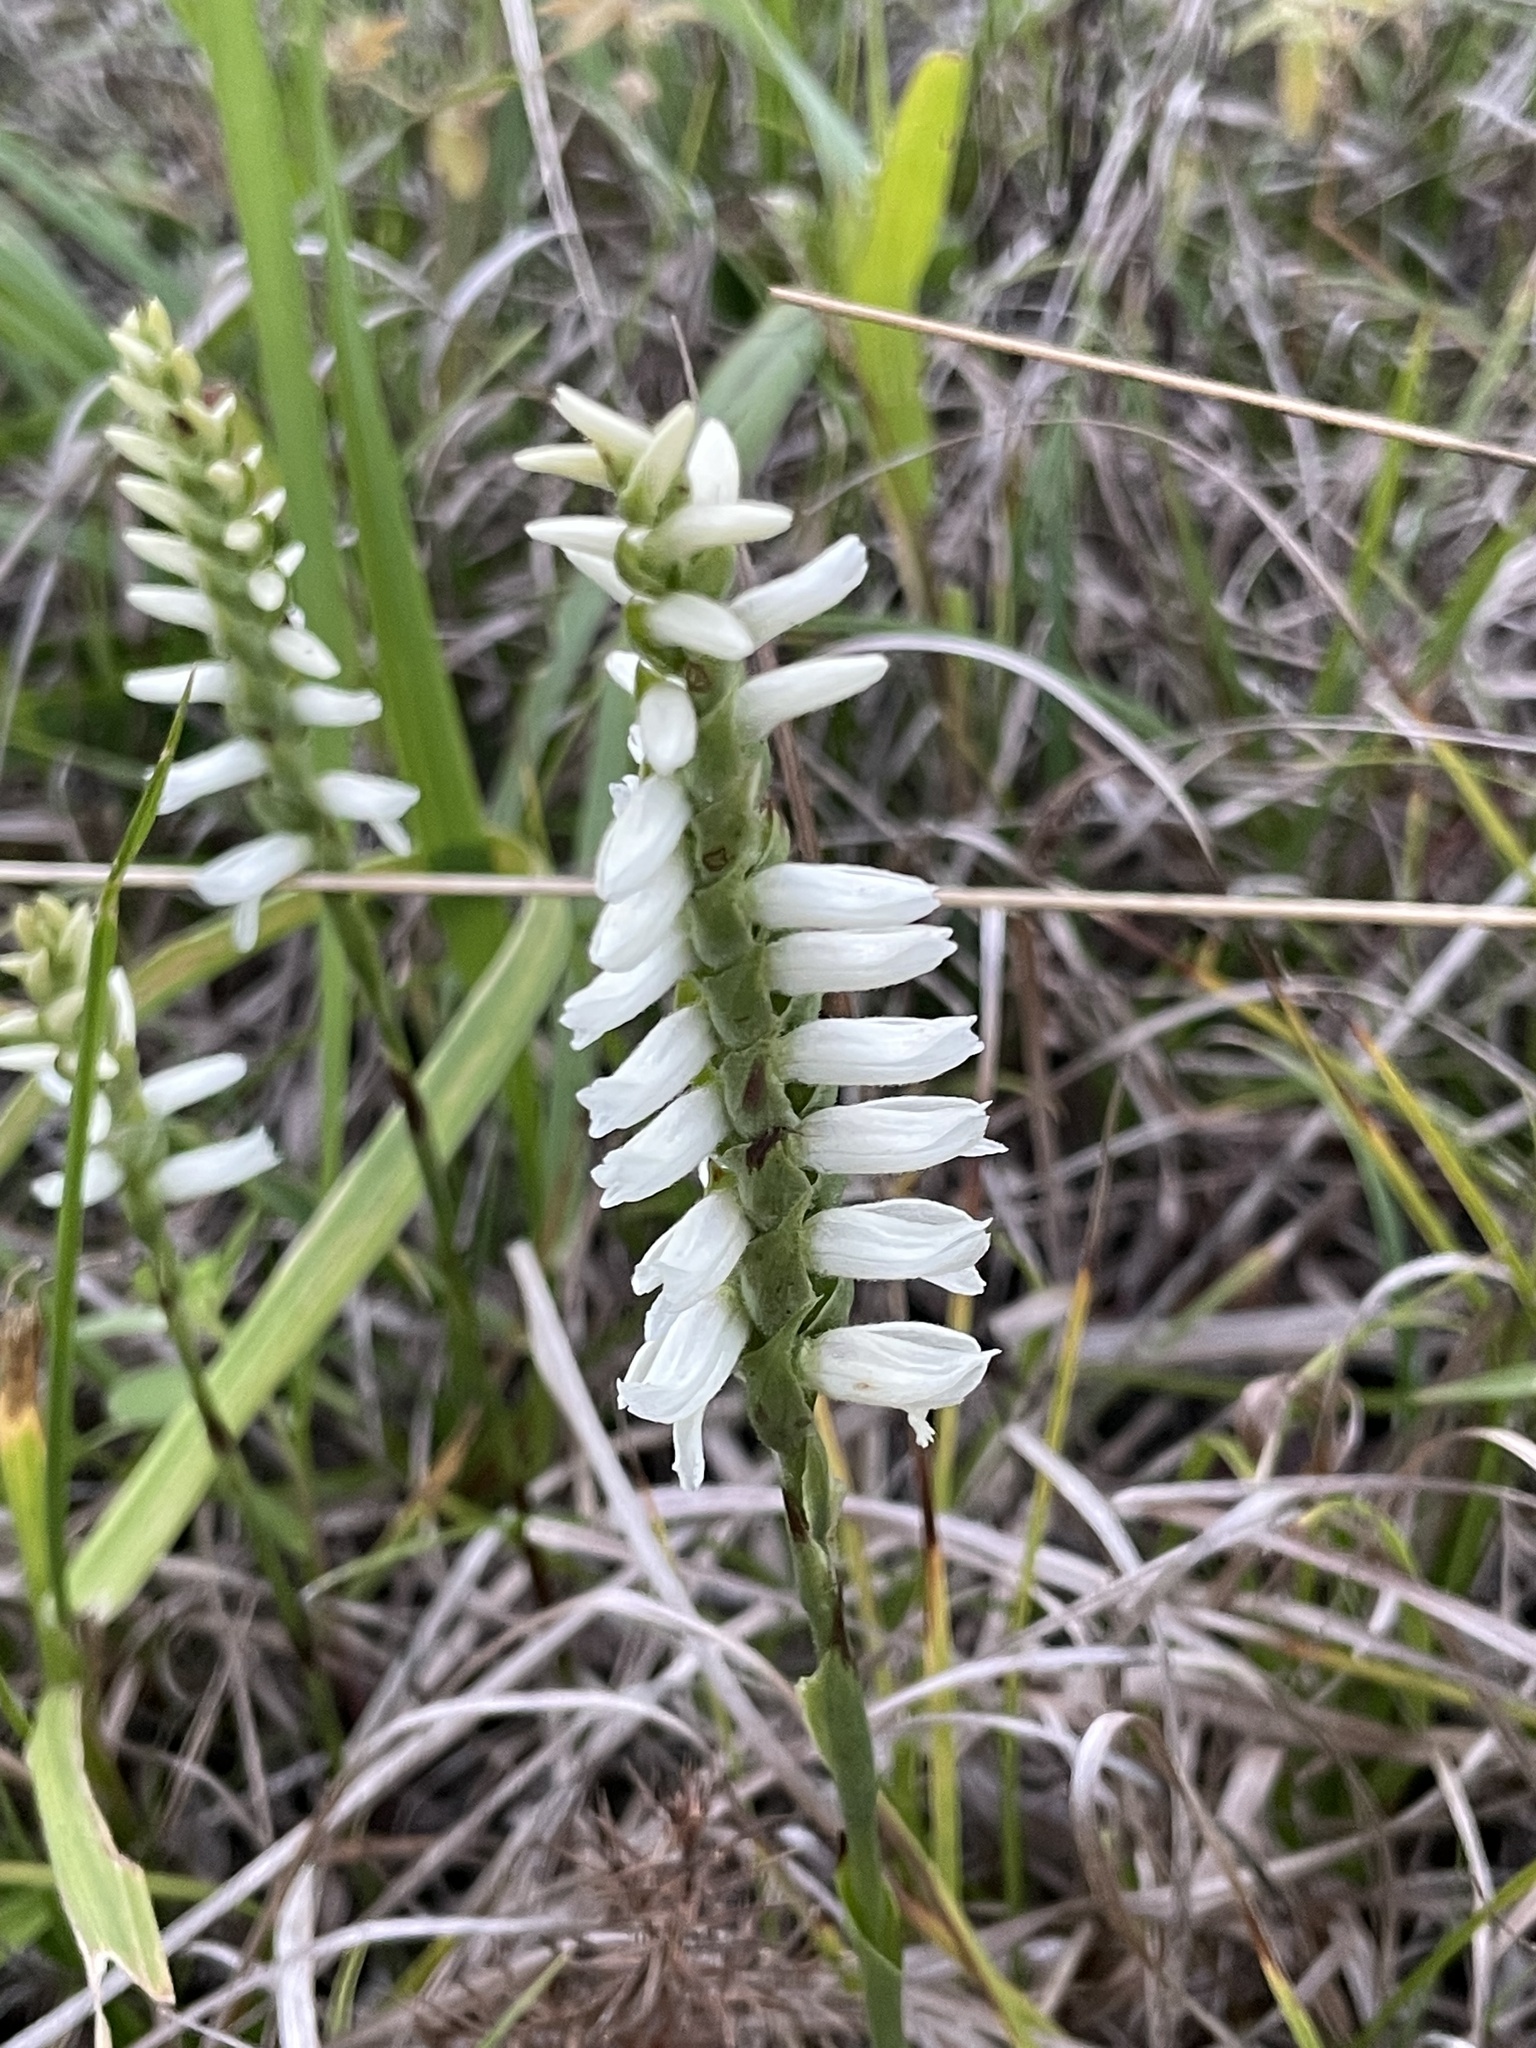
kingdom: Plantae
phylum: Tracheophyta
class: Liliopsida
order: Asparagales
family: Orchidaceae
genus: Spiranthes
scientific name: Spiranthes magnicamporum
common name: Great plains ladies'-tresses
